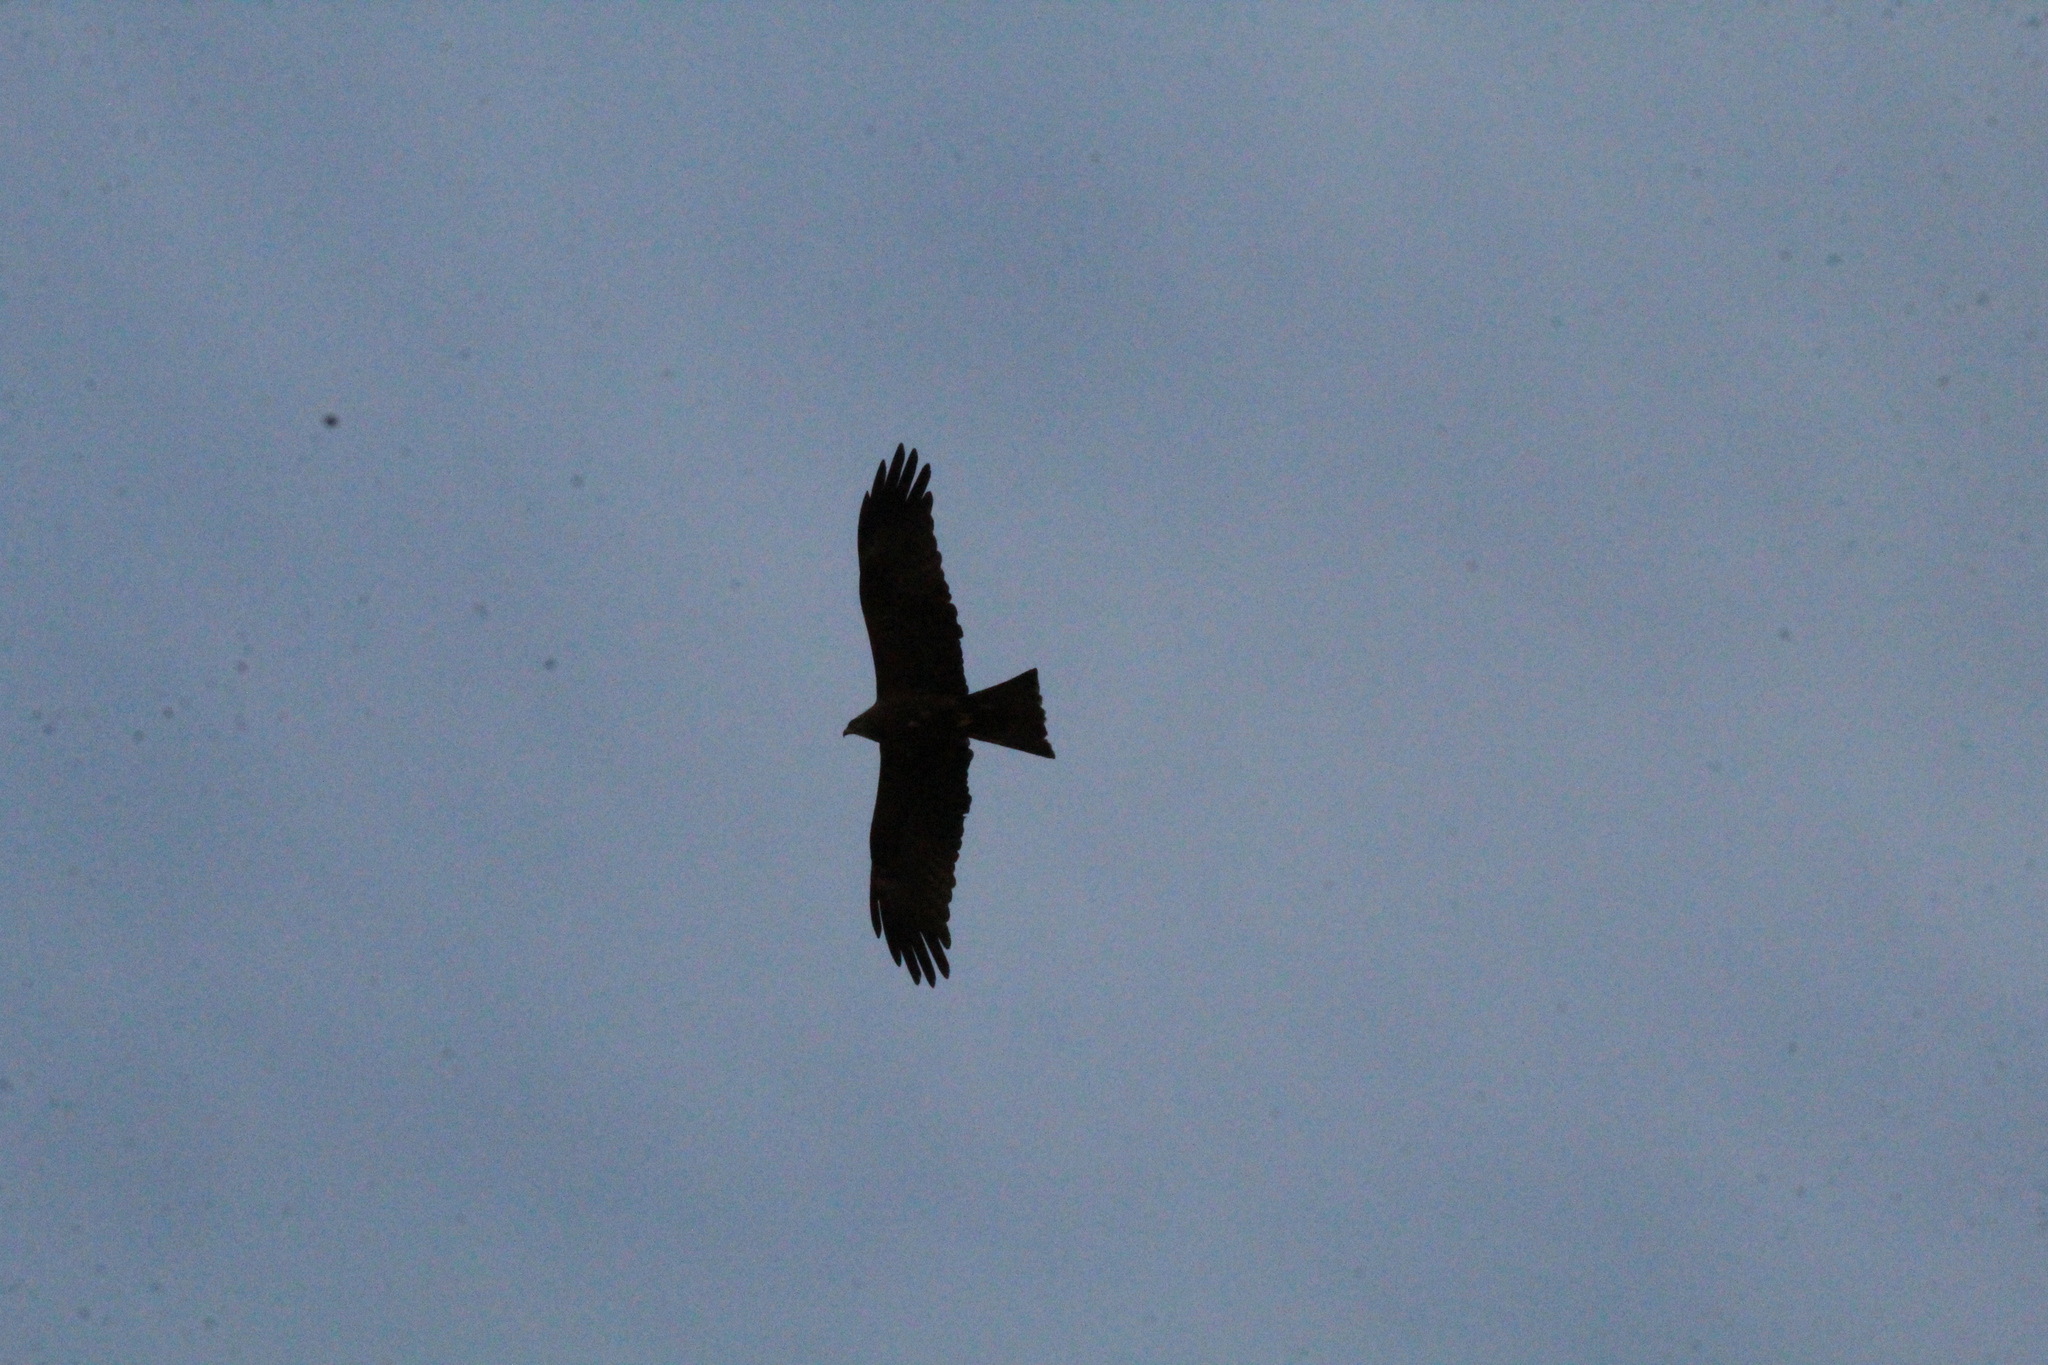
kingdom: Animalia
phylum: Chordata
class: Aves
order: Accipitriformes
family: Accipitridae
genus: Milvus
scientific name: Milvus migrans
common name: Black kite
